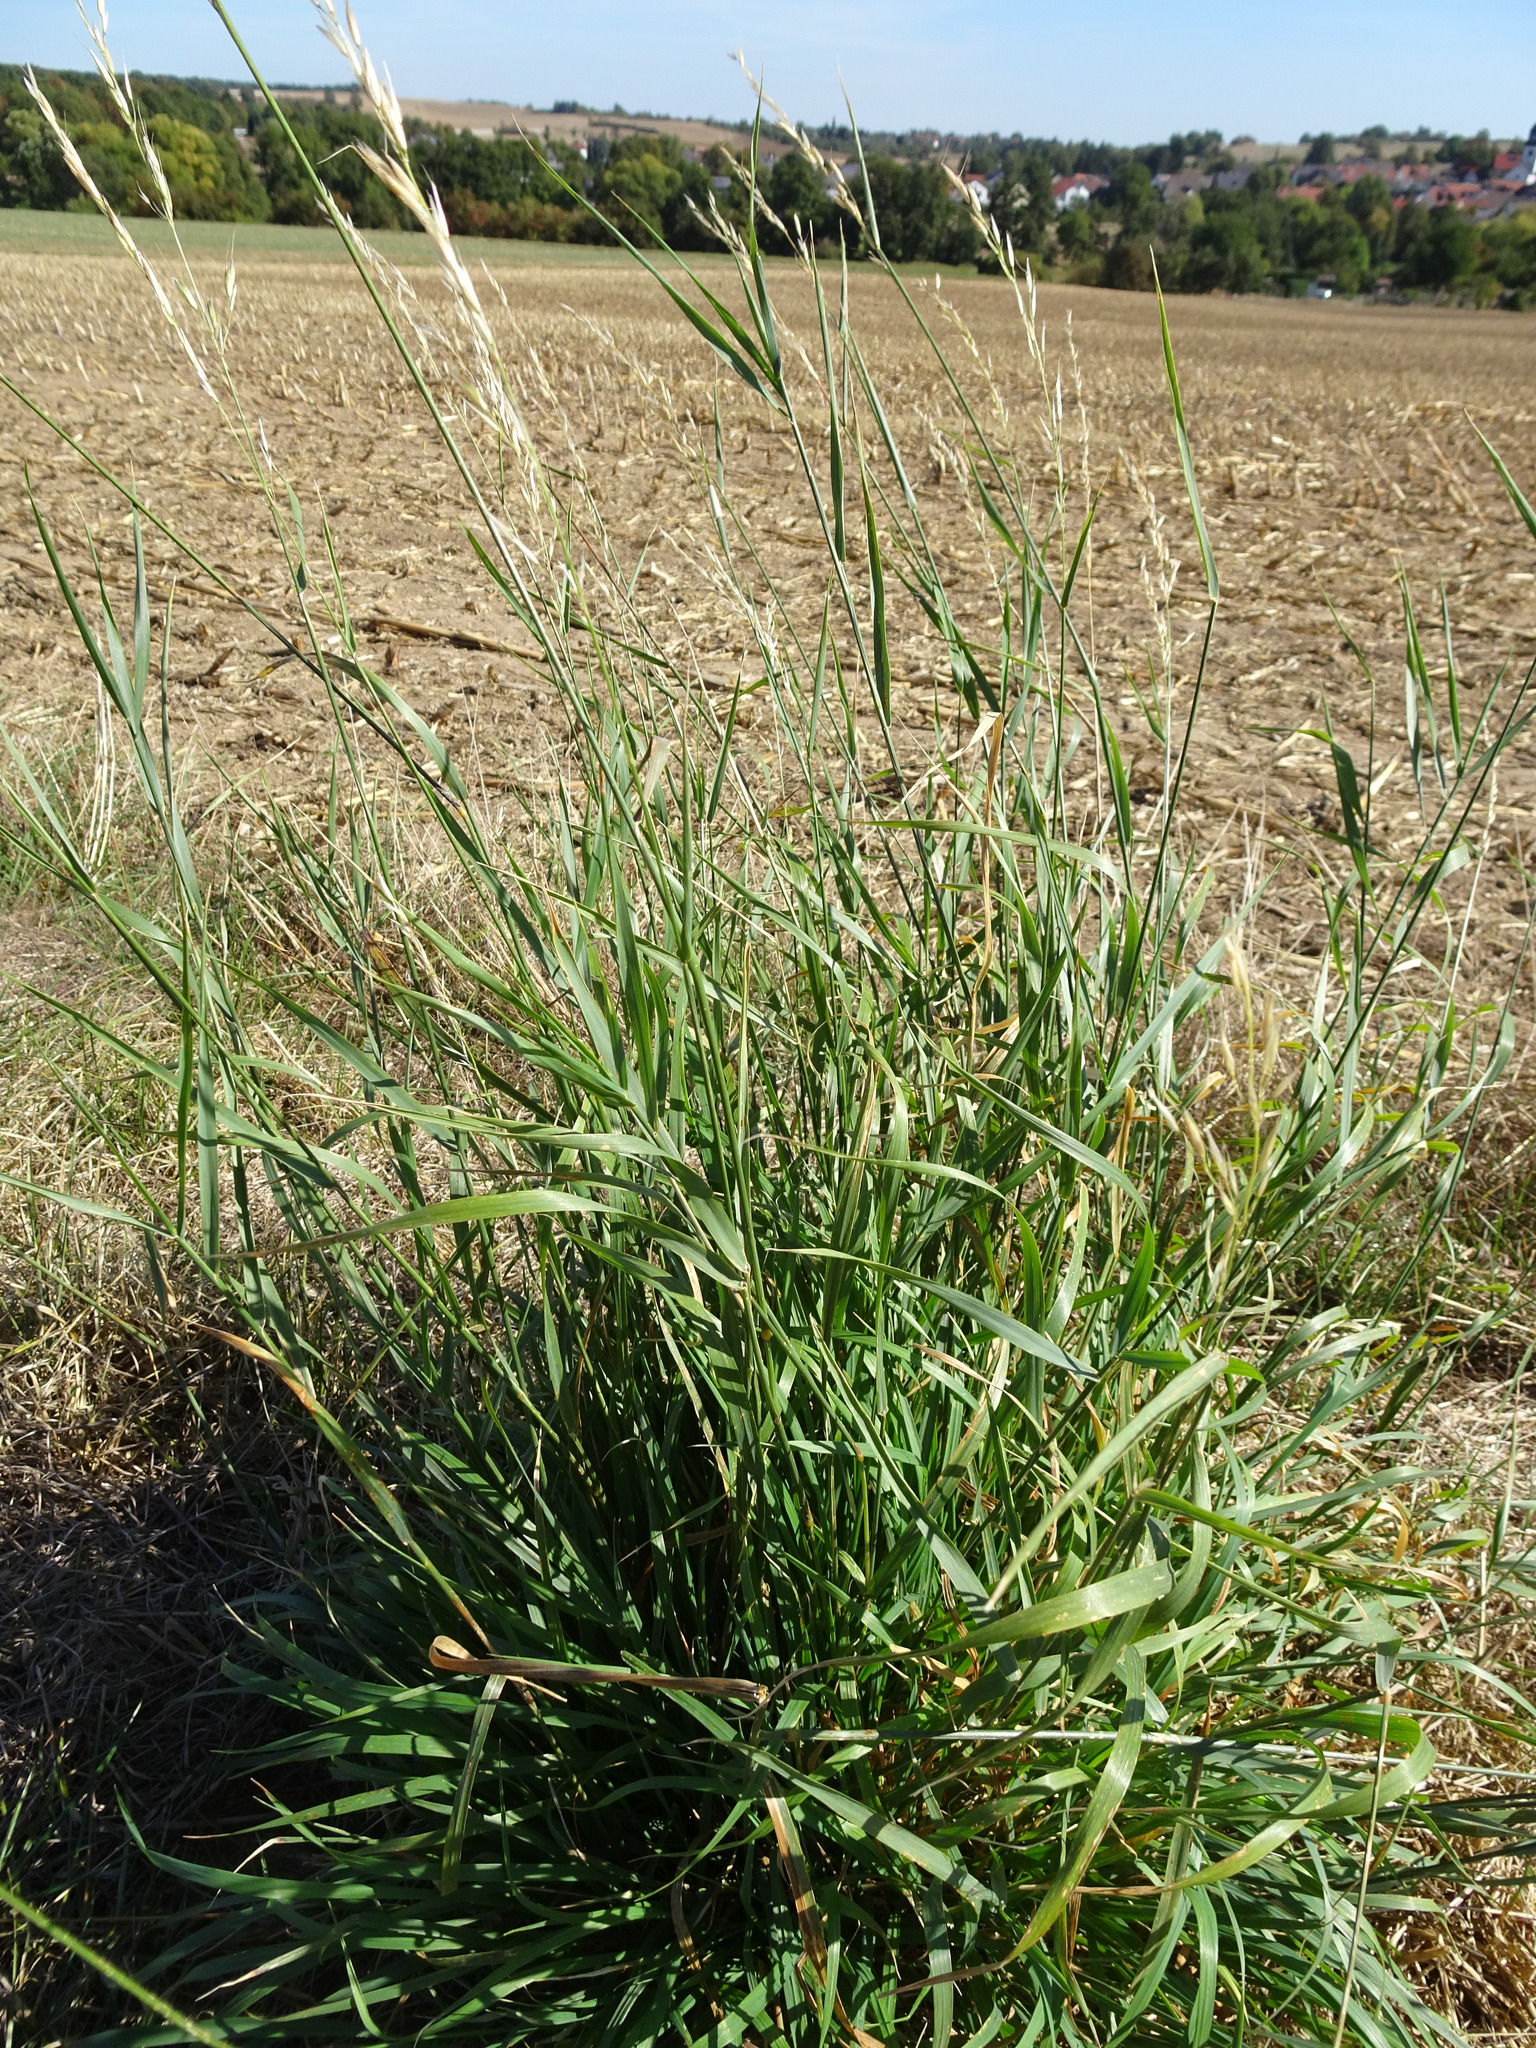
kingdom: Plantae
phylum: Tracheophyta
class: Liliopsida
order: Poales
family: Poaceae
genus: Arrhenatherum
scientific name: Arrhenatherum elatius
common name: Tall oatgrass
